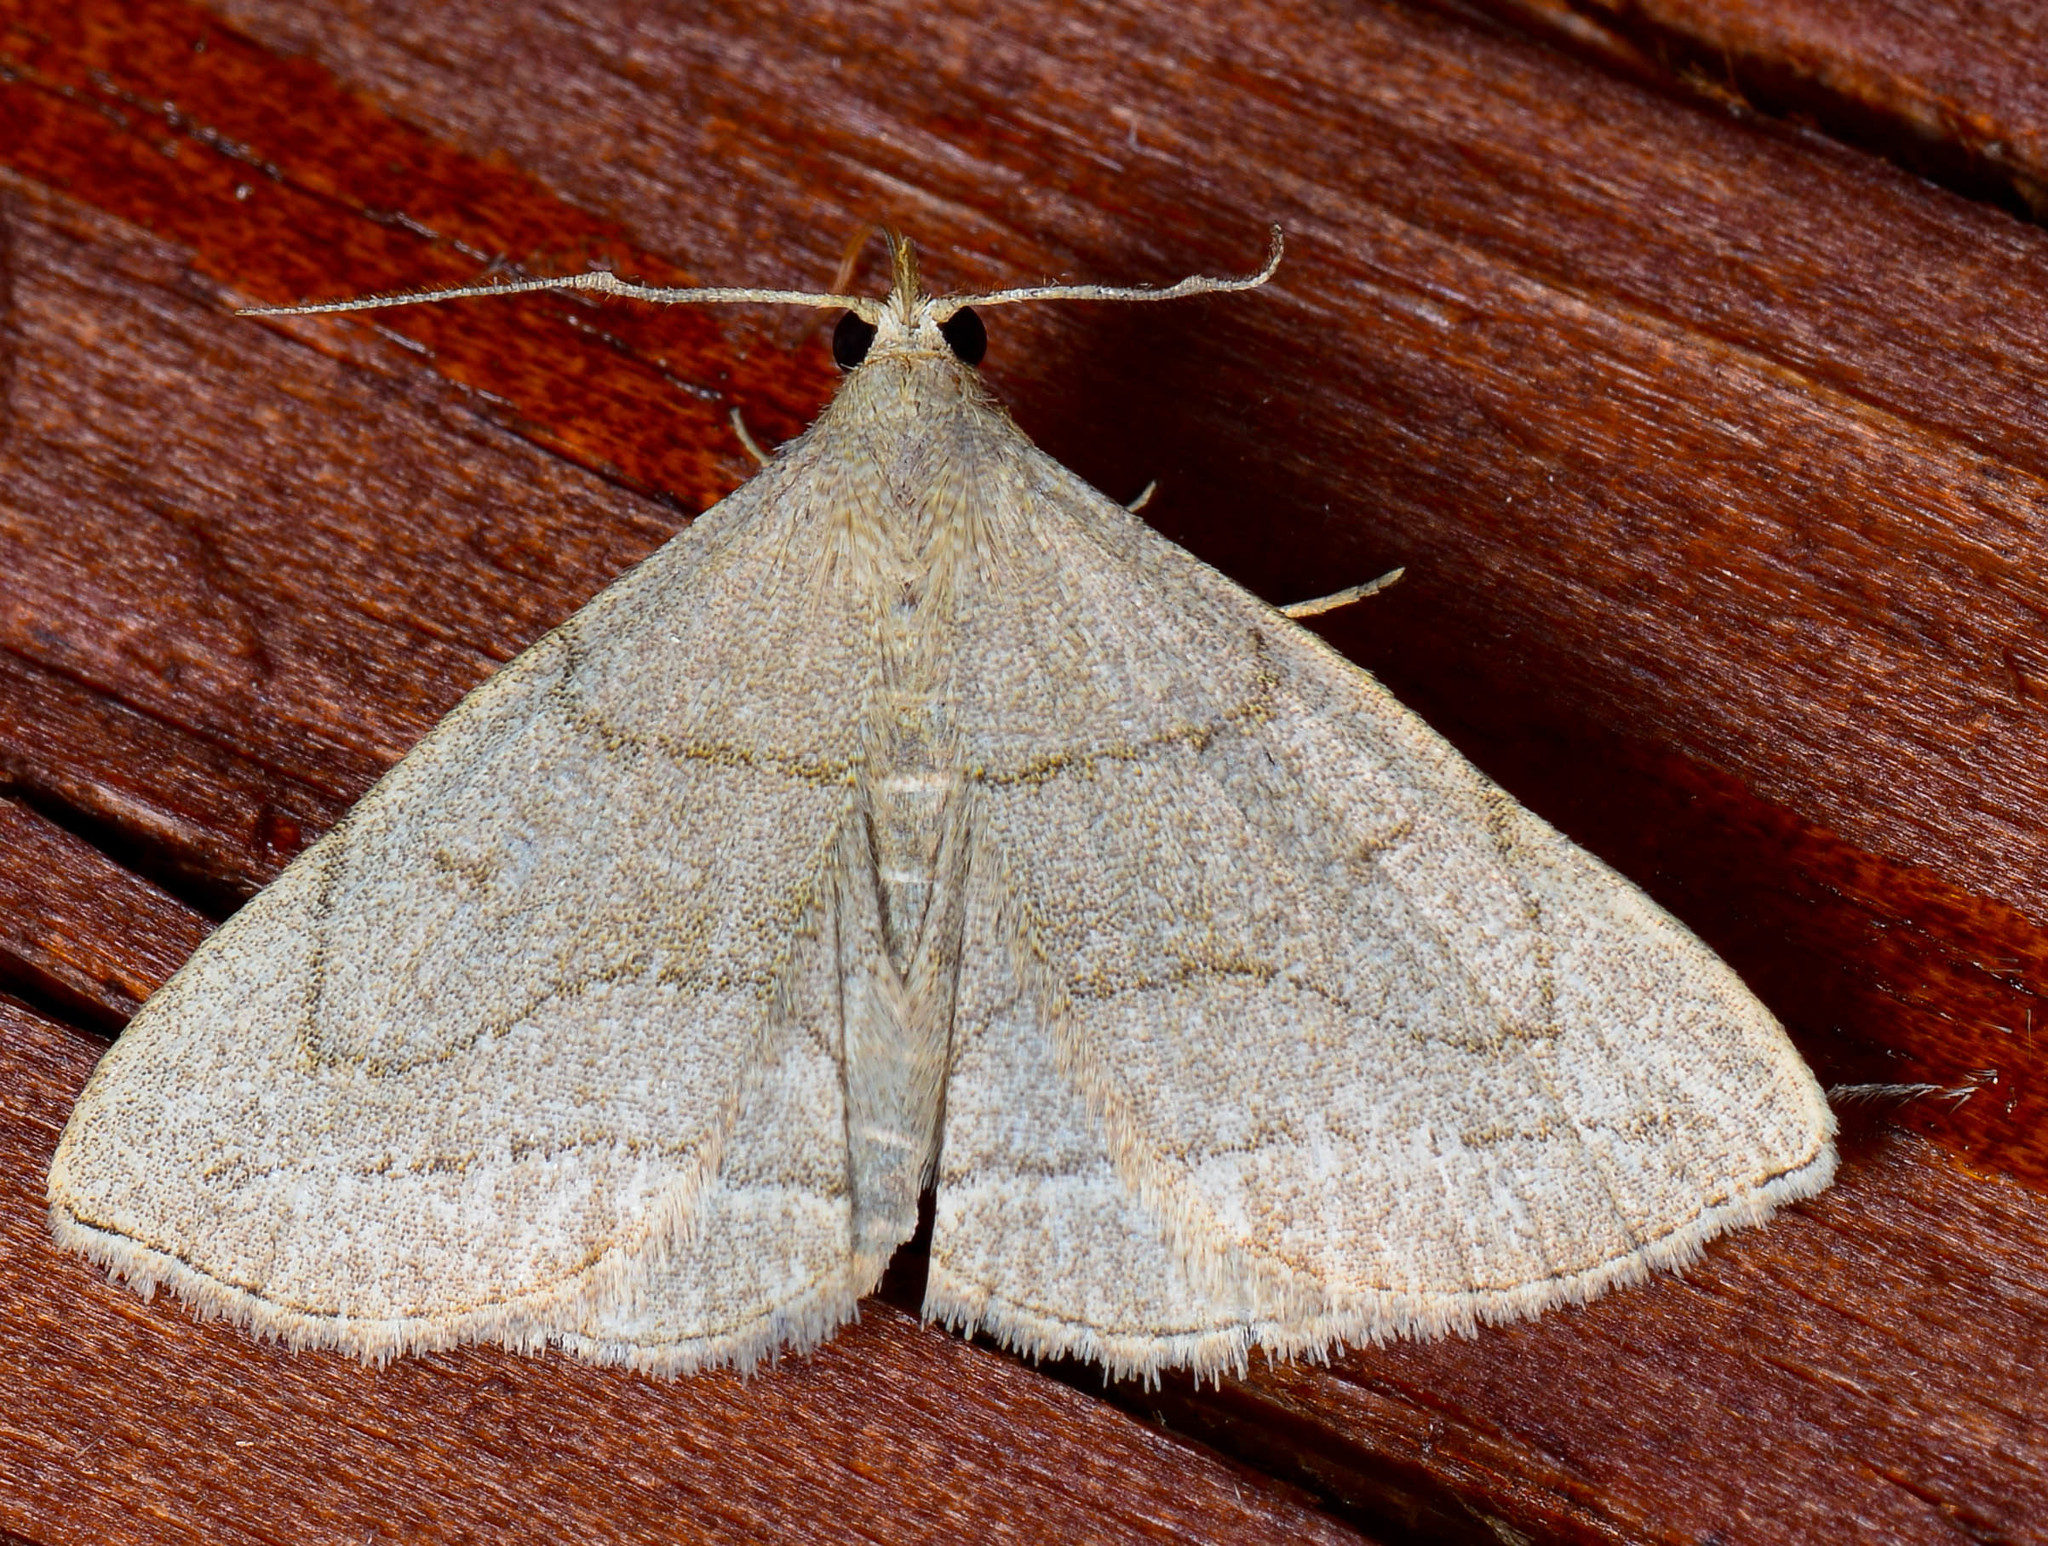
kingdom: Animalia
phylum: Arthropoda
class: Insecta
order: Lepidoptera
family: Erebidae
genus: Zanclognatha
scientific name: Zanclognatha pedipilalis
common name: Grayish fan-foot
